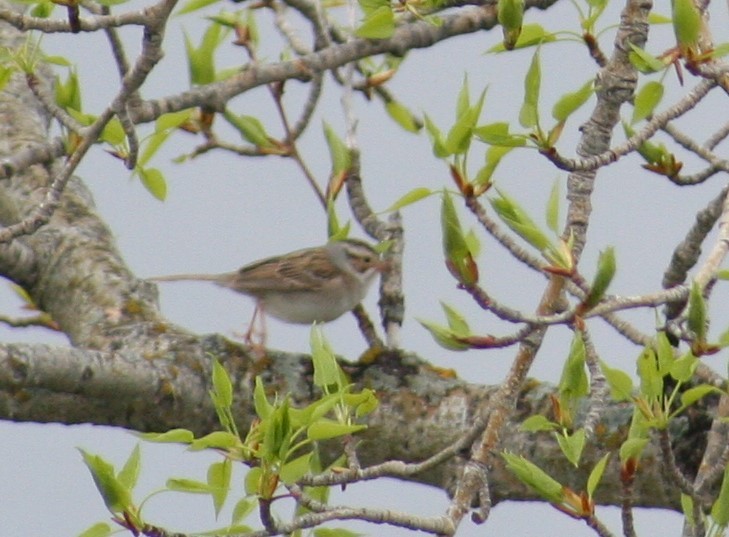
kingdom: Animalia
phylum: Chordata
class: Aves
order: Passeriformes
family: Passerellidae
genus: Spizella
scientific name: Spizella pallida
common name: Clay-colored sparrow
